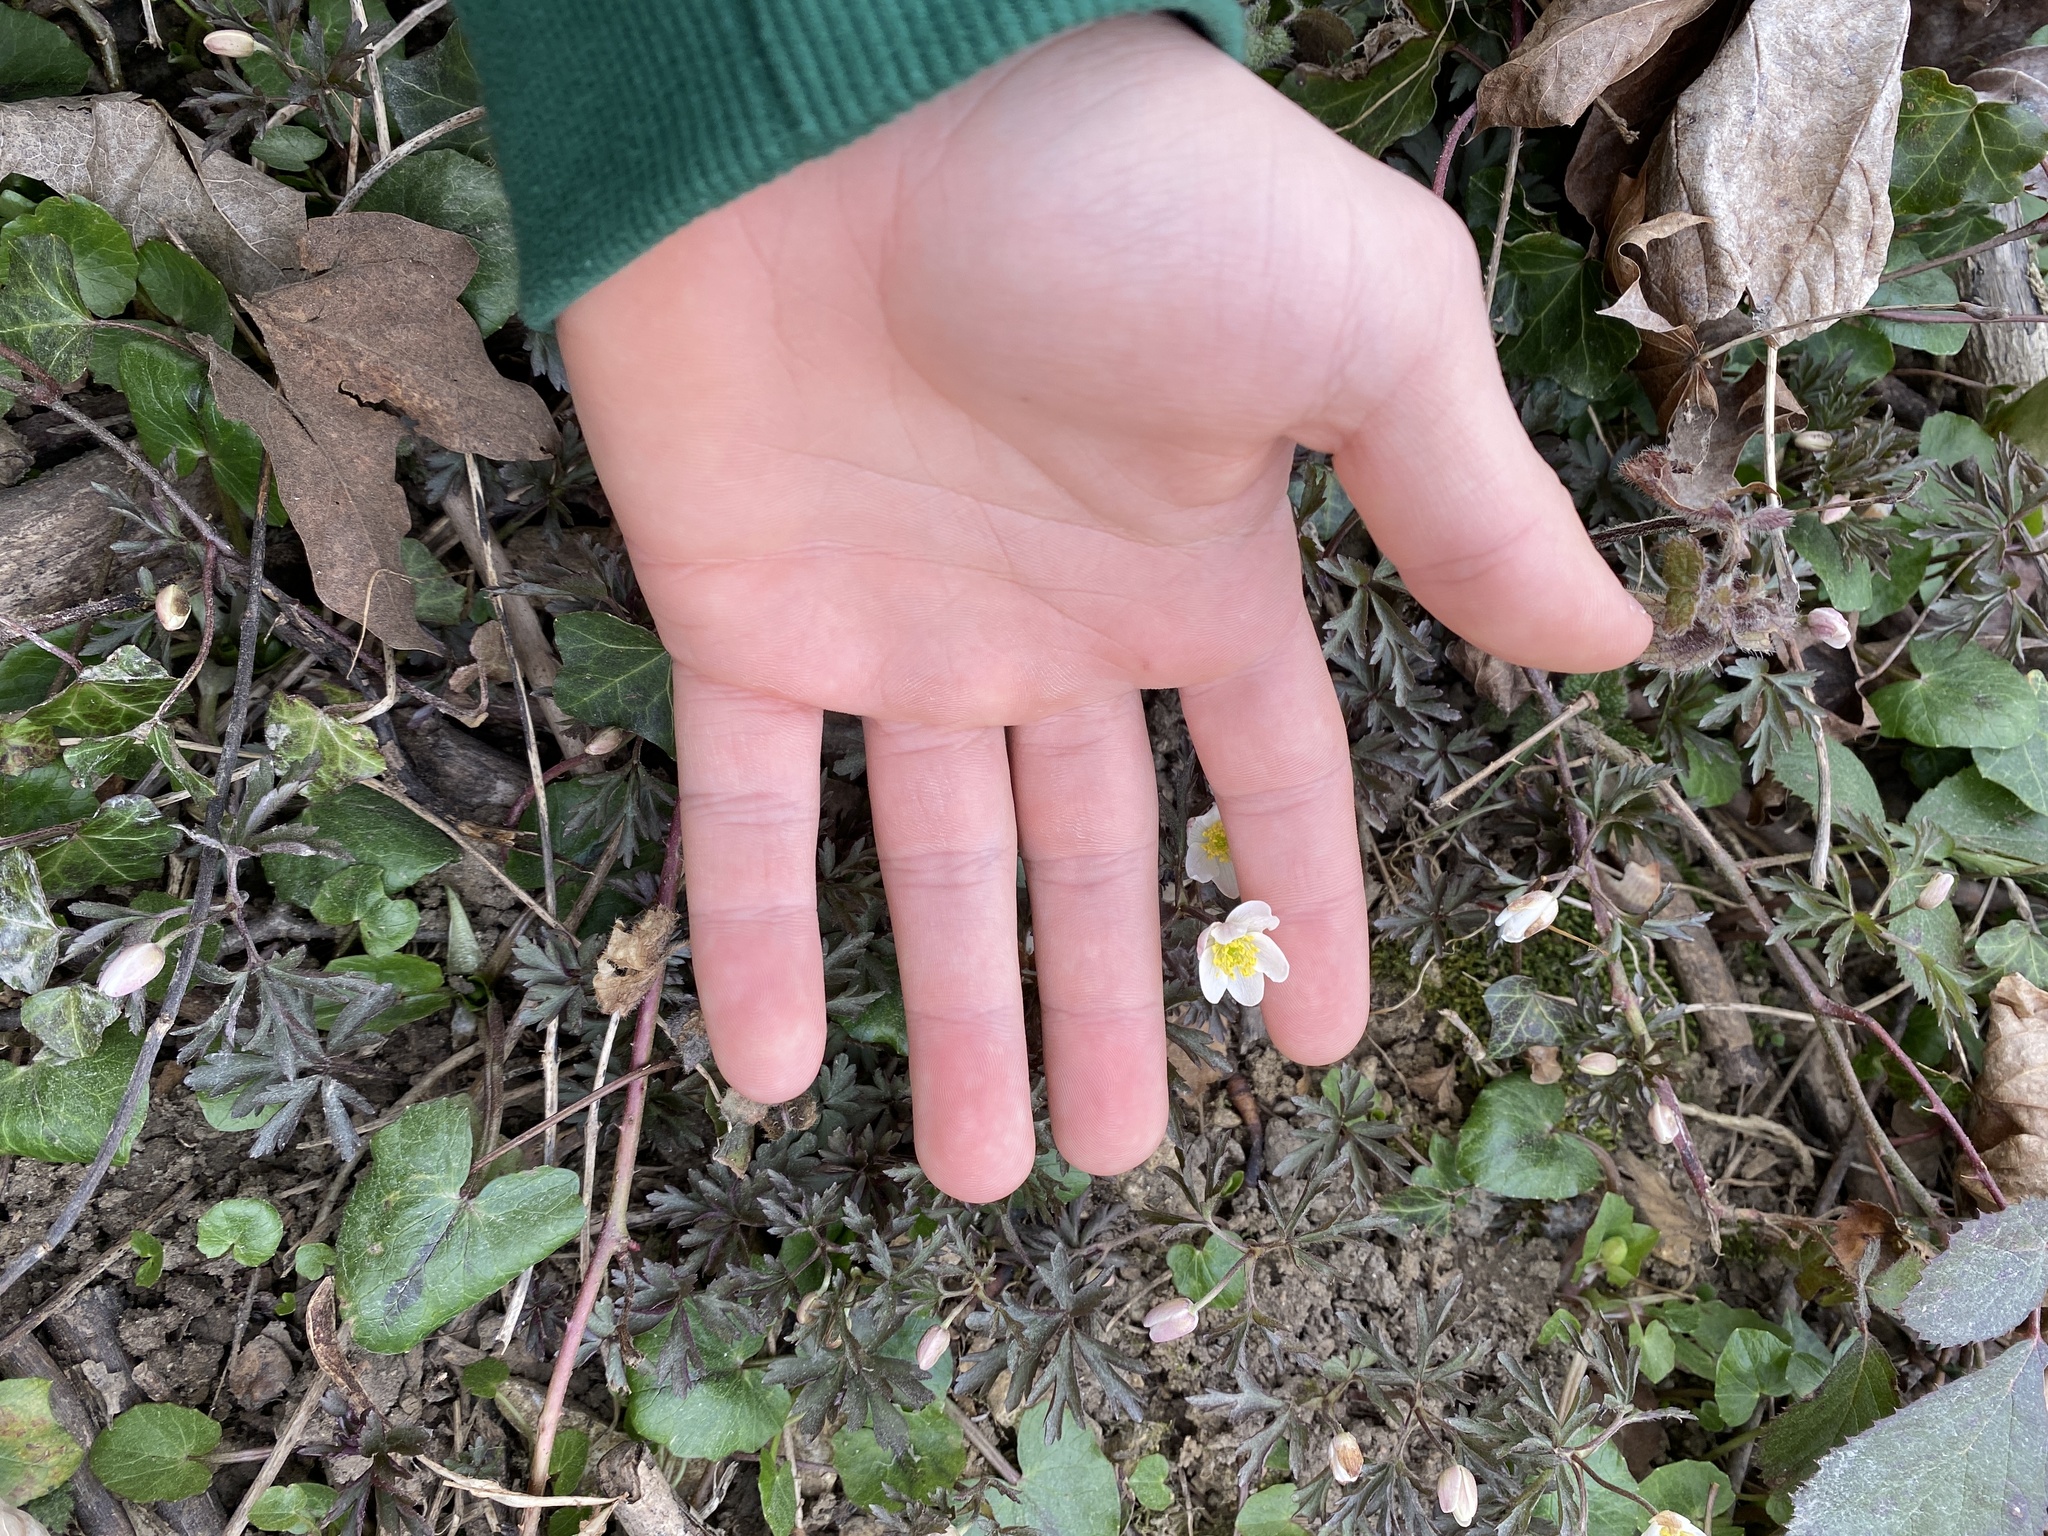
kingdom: Plantae
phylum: Tracheophyta
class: Magnoliopsida
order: Ranunculales
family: Ranunculaceae
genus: Anemone
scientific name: Anemone nemorosa
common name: Wood anemone
